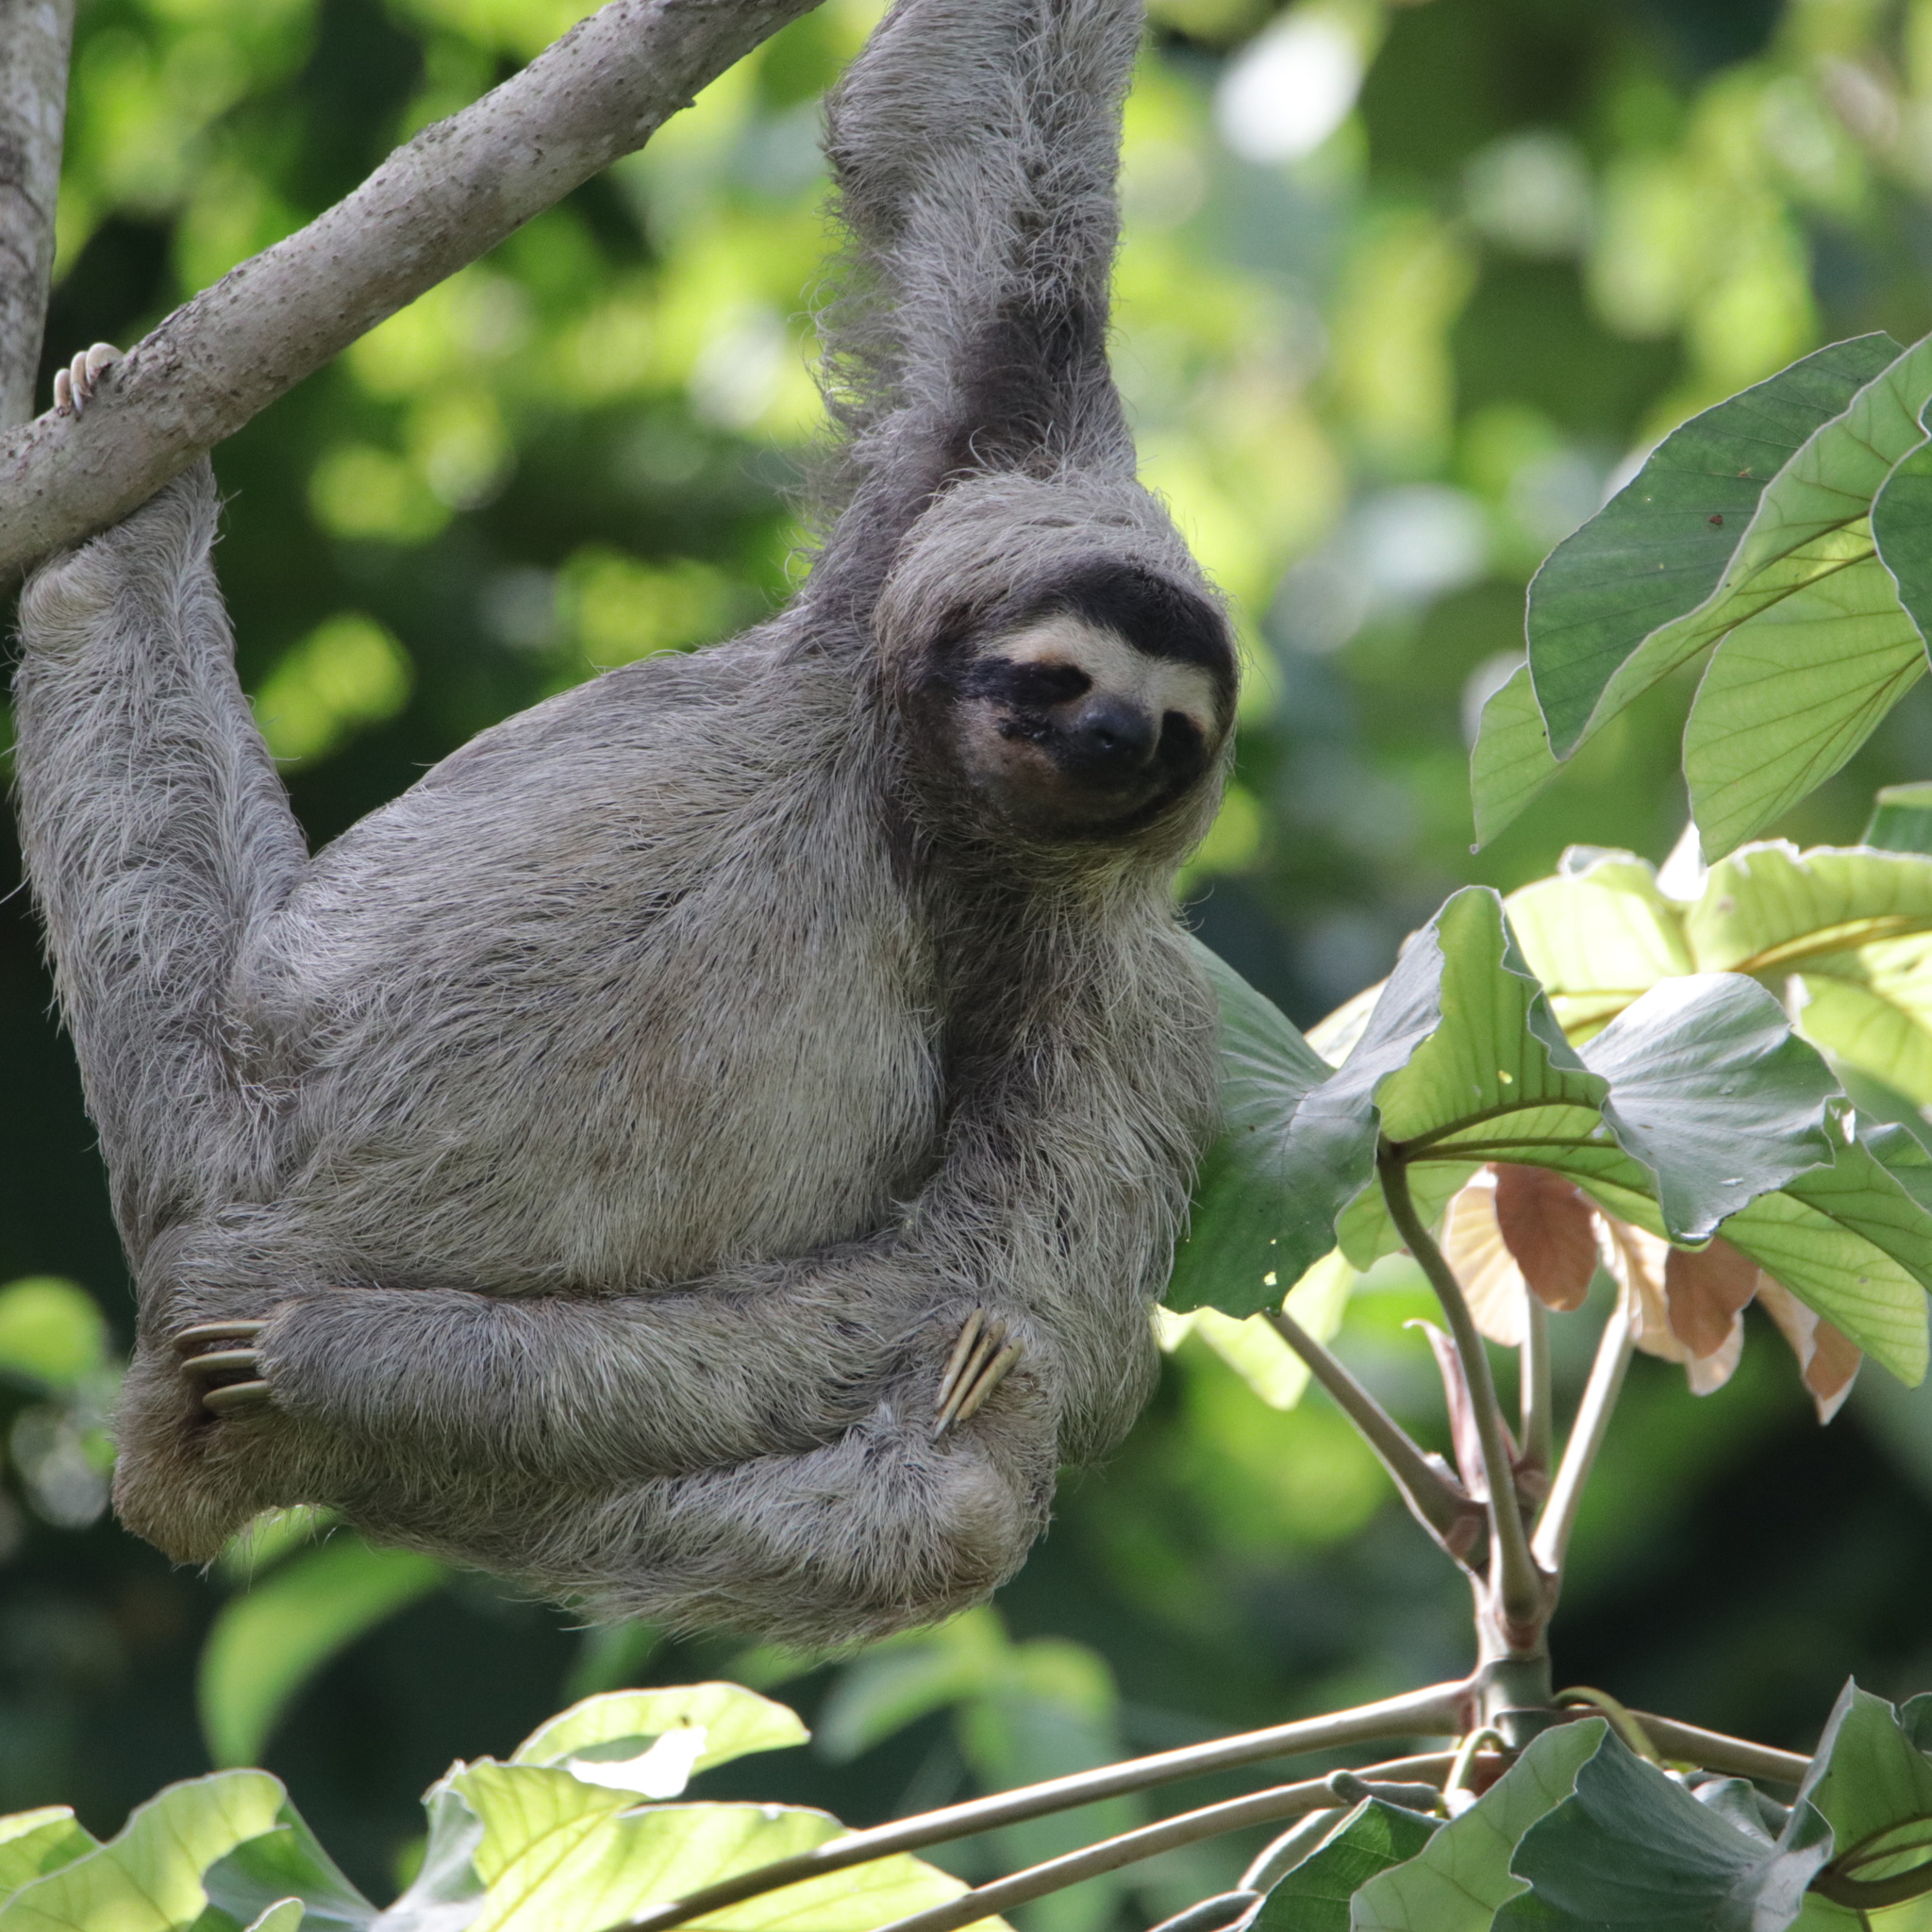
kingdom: Animalia
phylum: Chordata
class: Mammalia
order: Pilosa
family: Bradypodidae
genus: Bradypus
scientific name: Bradypus variegatus
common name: Brown-throated three-toed sloth
